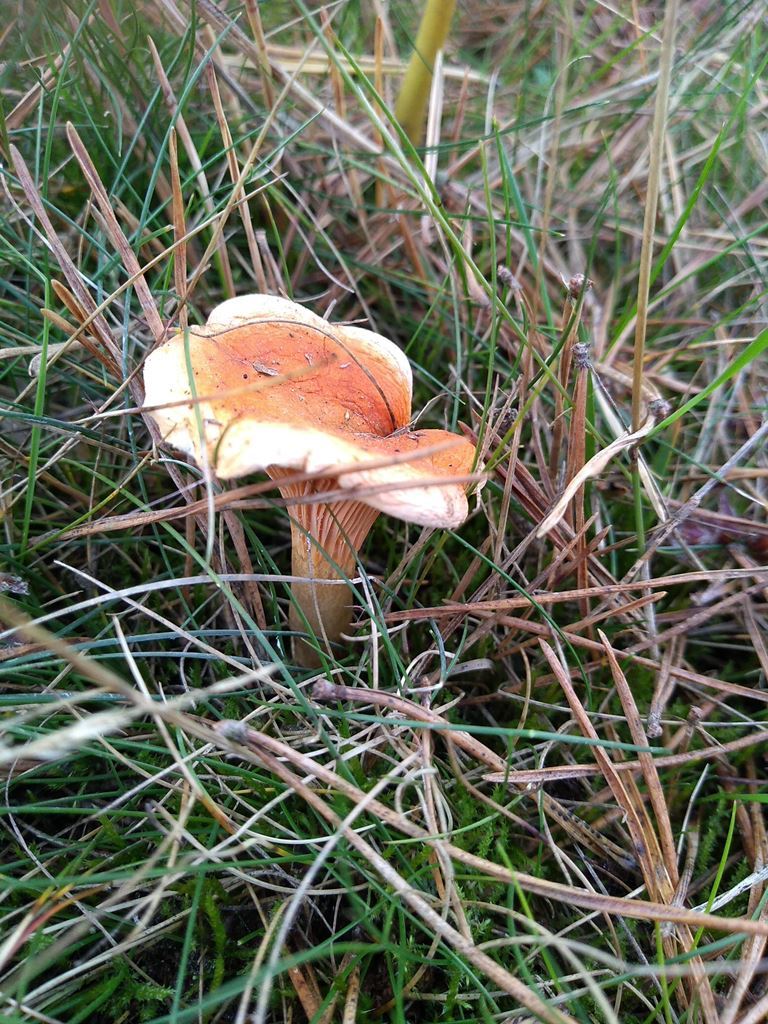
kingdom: Fungi
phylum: Basidiomycota
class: Agaricomycetes
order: Boletales
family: Hygrophoropsidaceae
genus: Hygrophoropsis
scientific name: Hygrophoropsis aurantiaca
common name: False chanterelle
